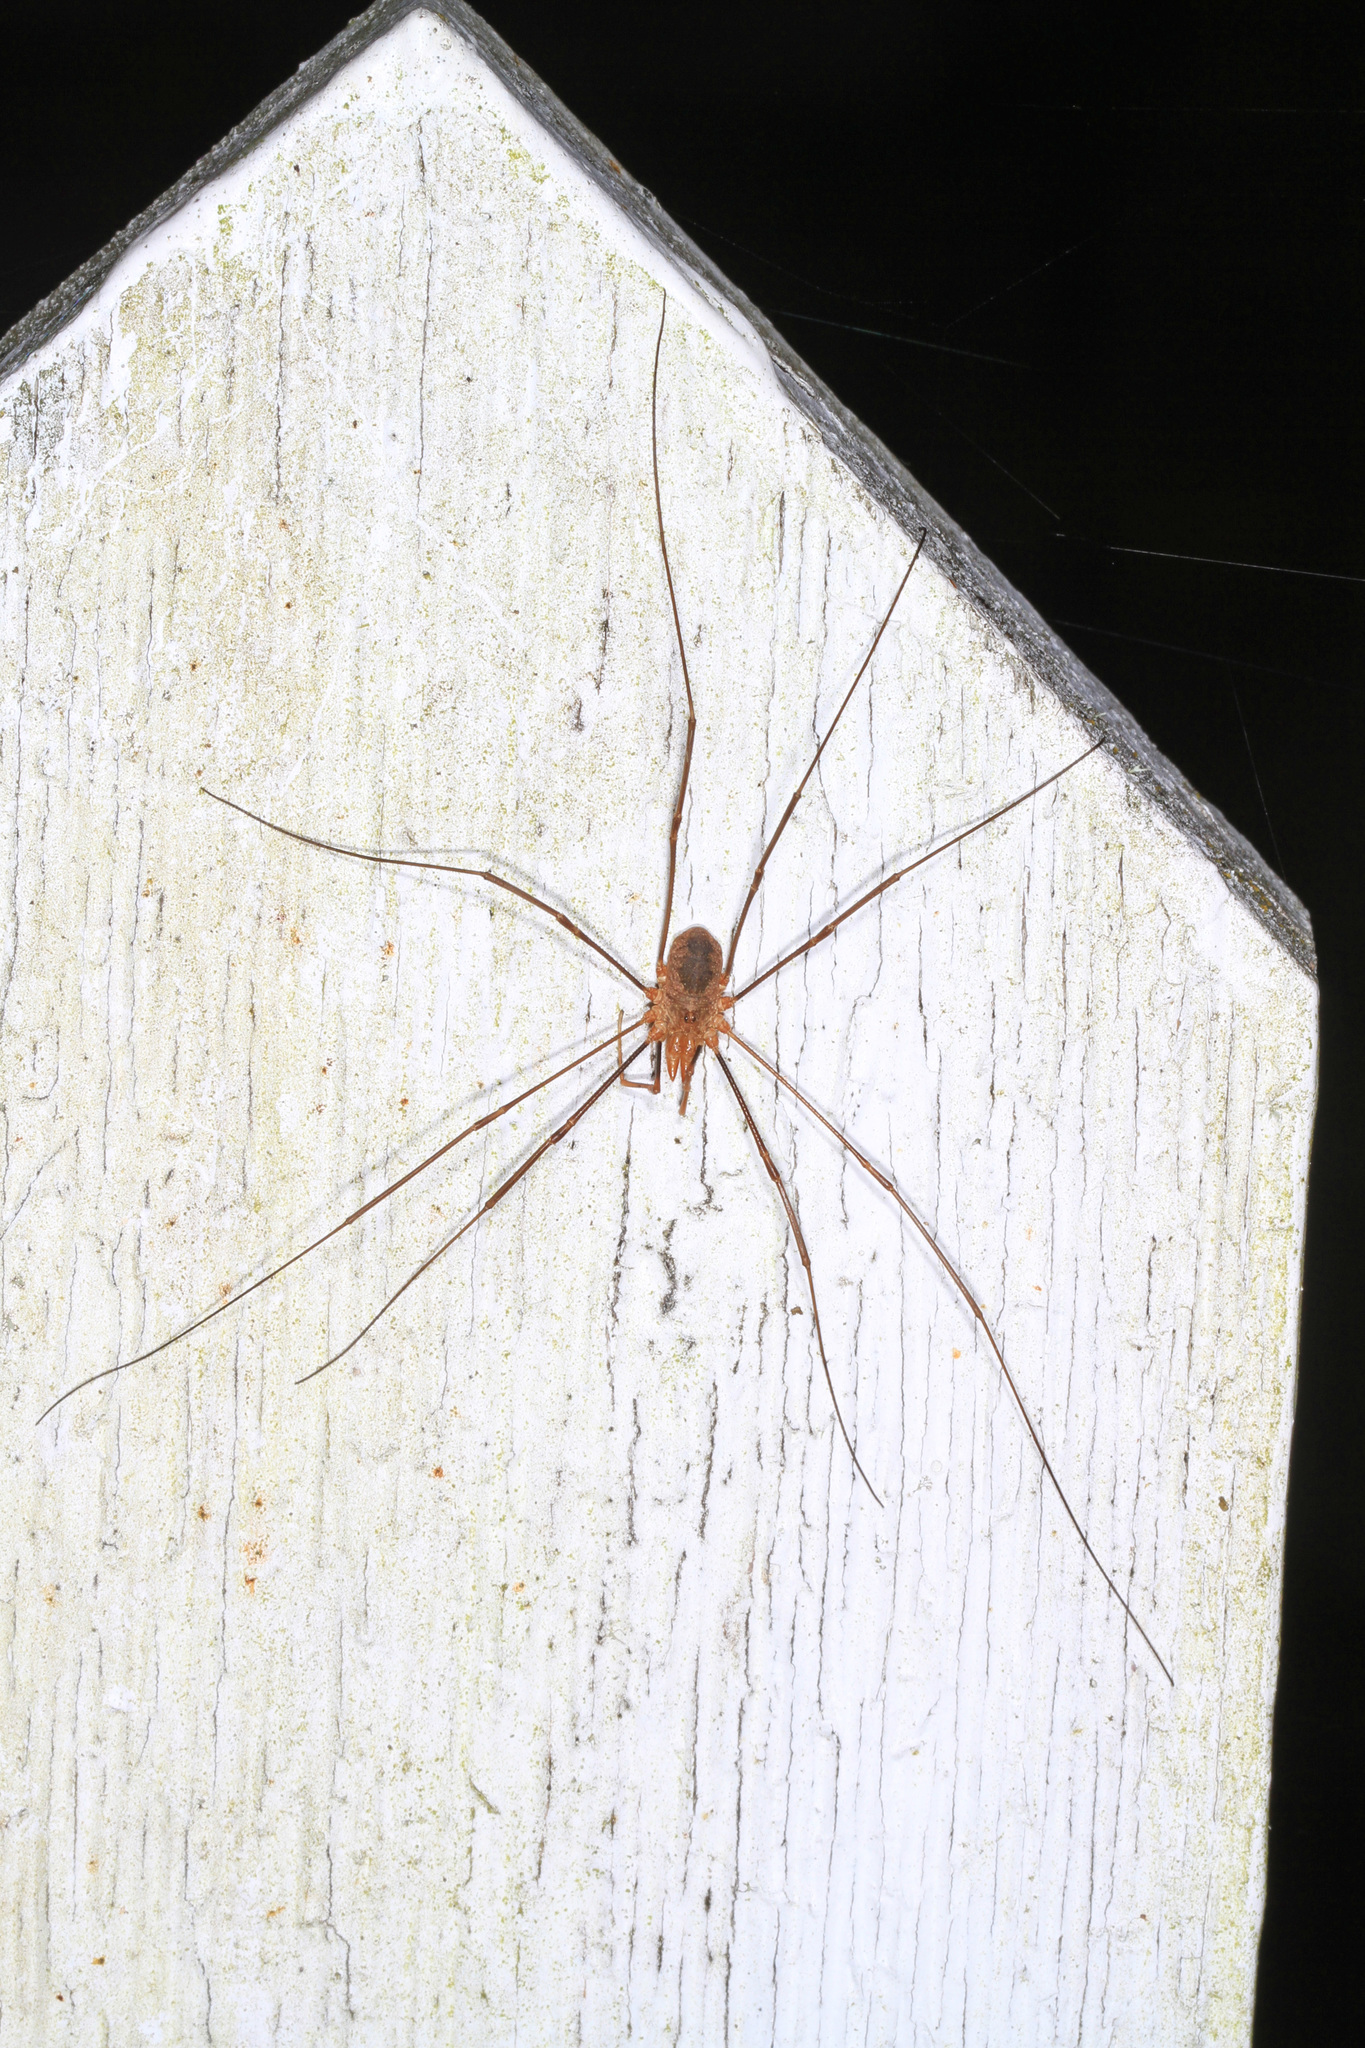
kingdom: Animalia
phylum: Arthropoda
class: Arachnida
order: Opiliones
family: Phalangiidae
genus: Phalangium
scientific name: Phalangium opilio
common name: Daddy longleg
